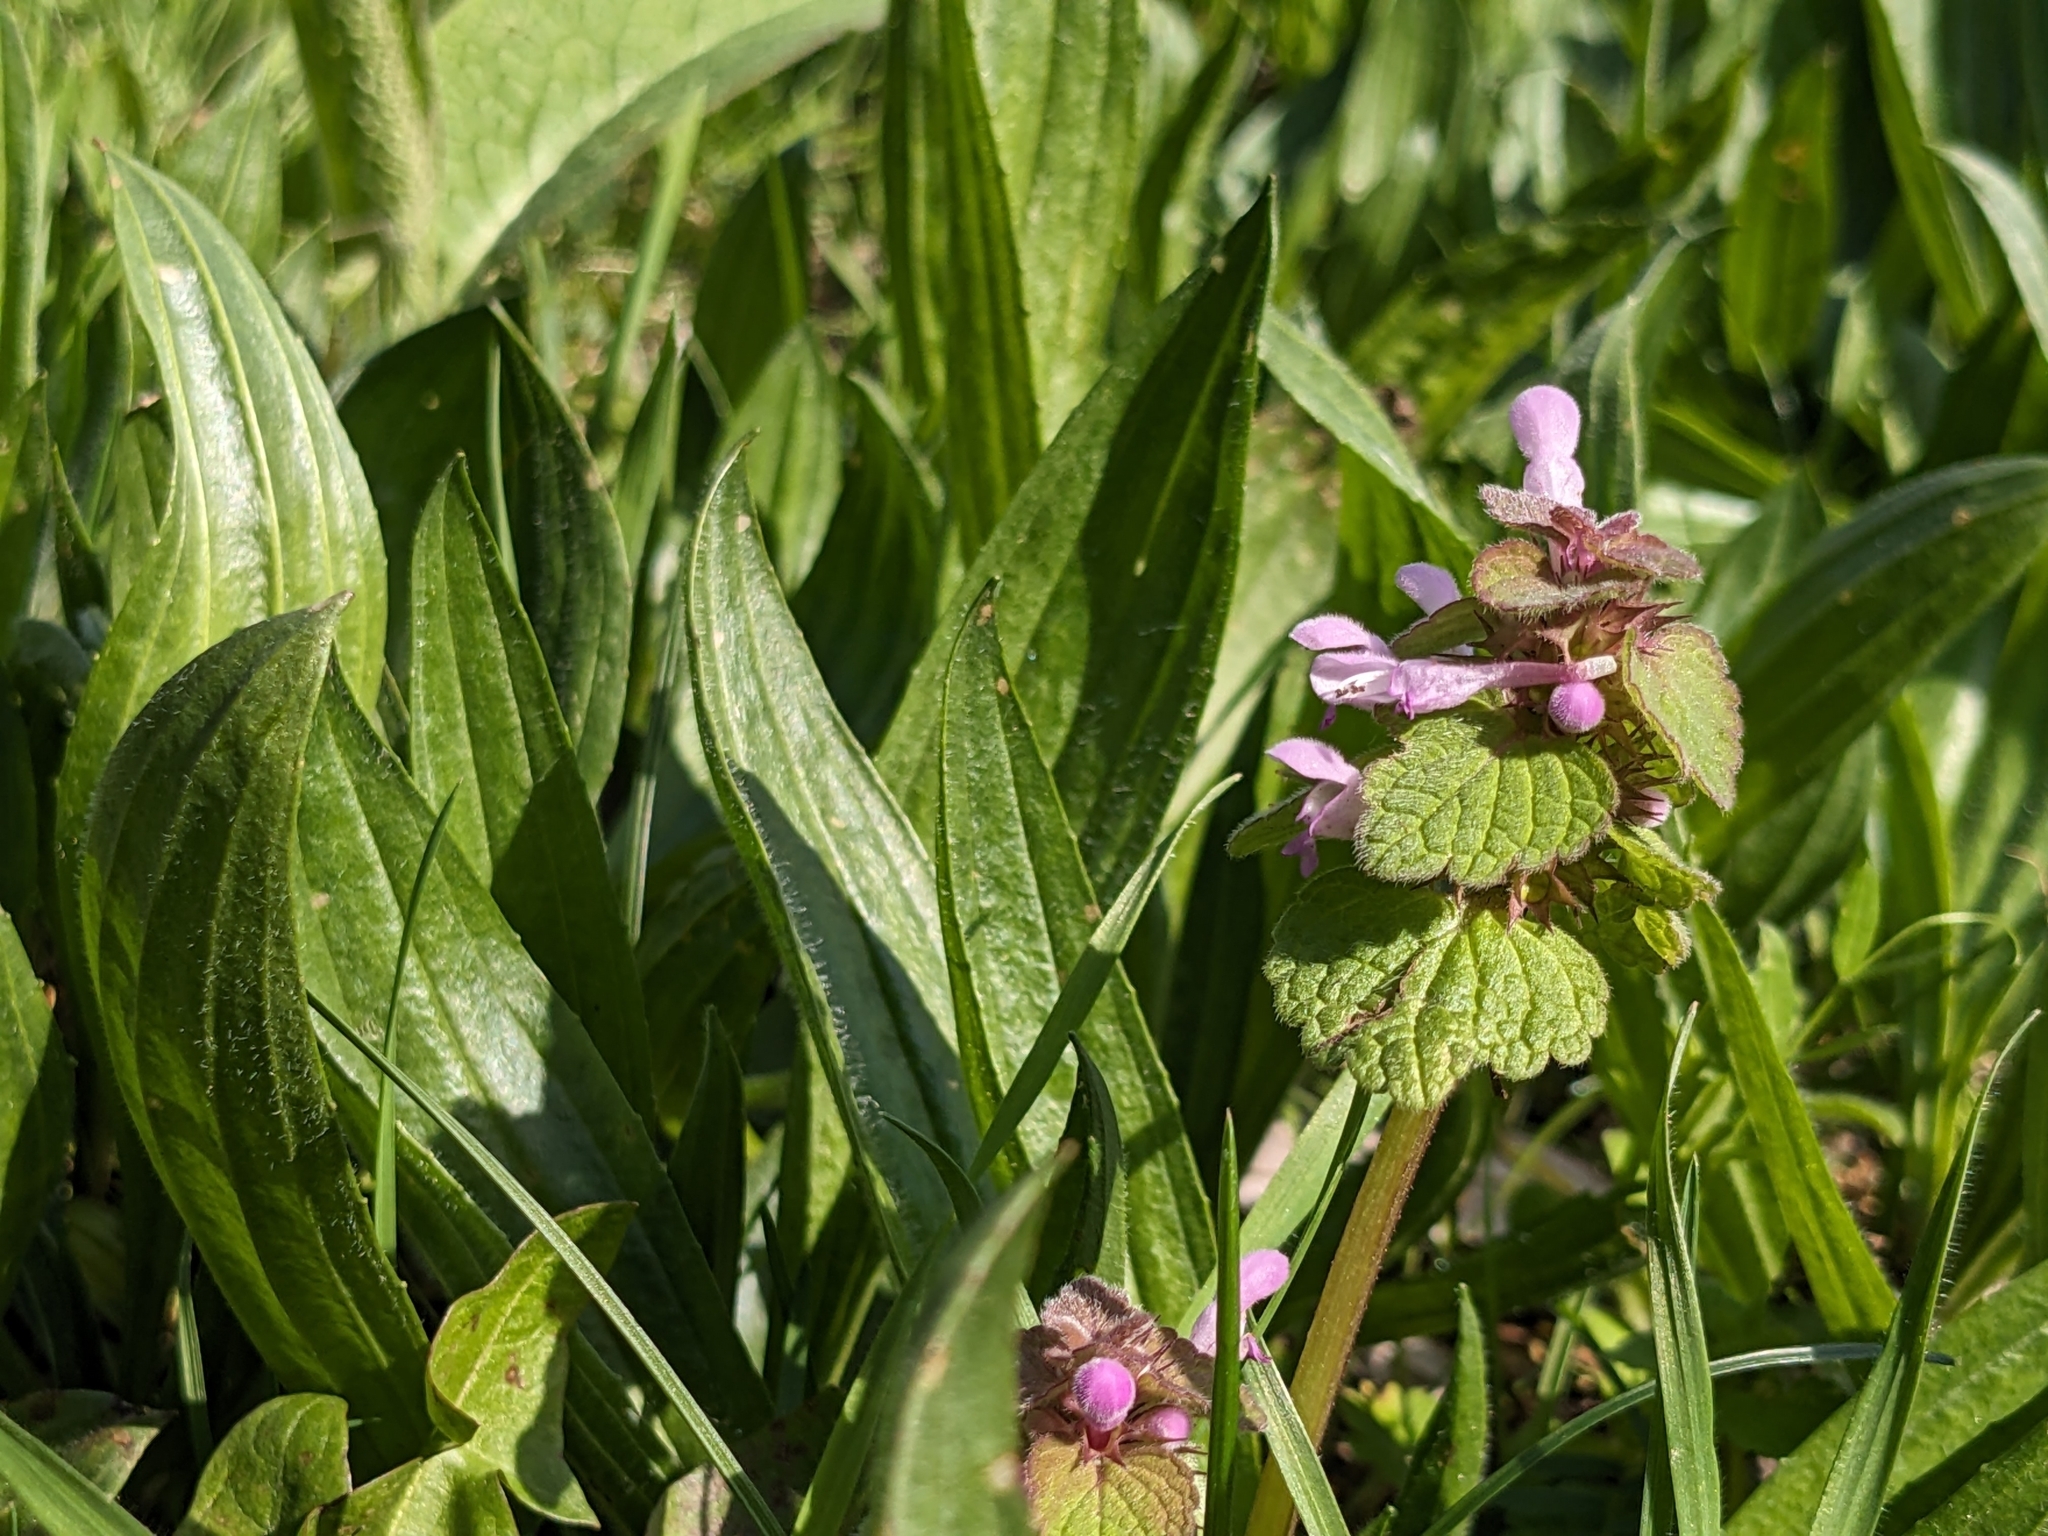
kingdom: Plantae
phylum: Tracheophyta
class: Magnoliopsida
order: Lamiales
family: Lamiaceae
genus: Lamium
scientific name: Lamium purpureum
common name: Red dead-nettle
